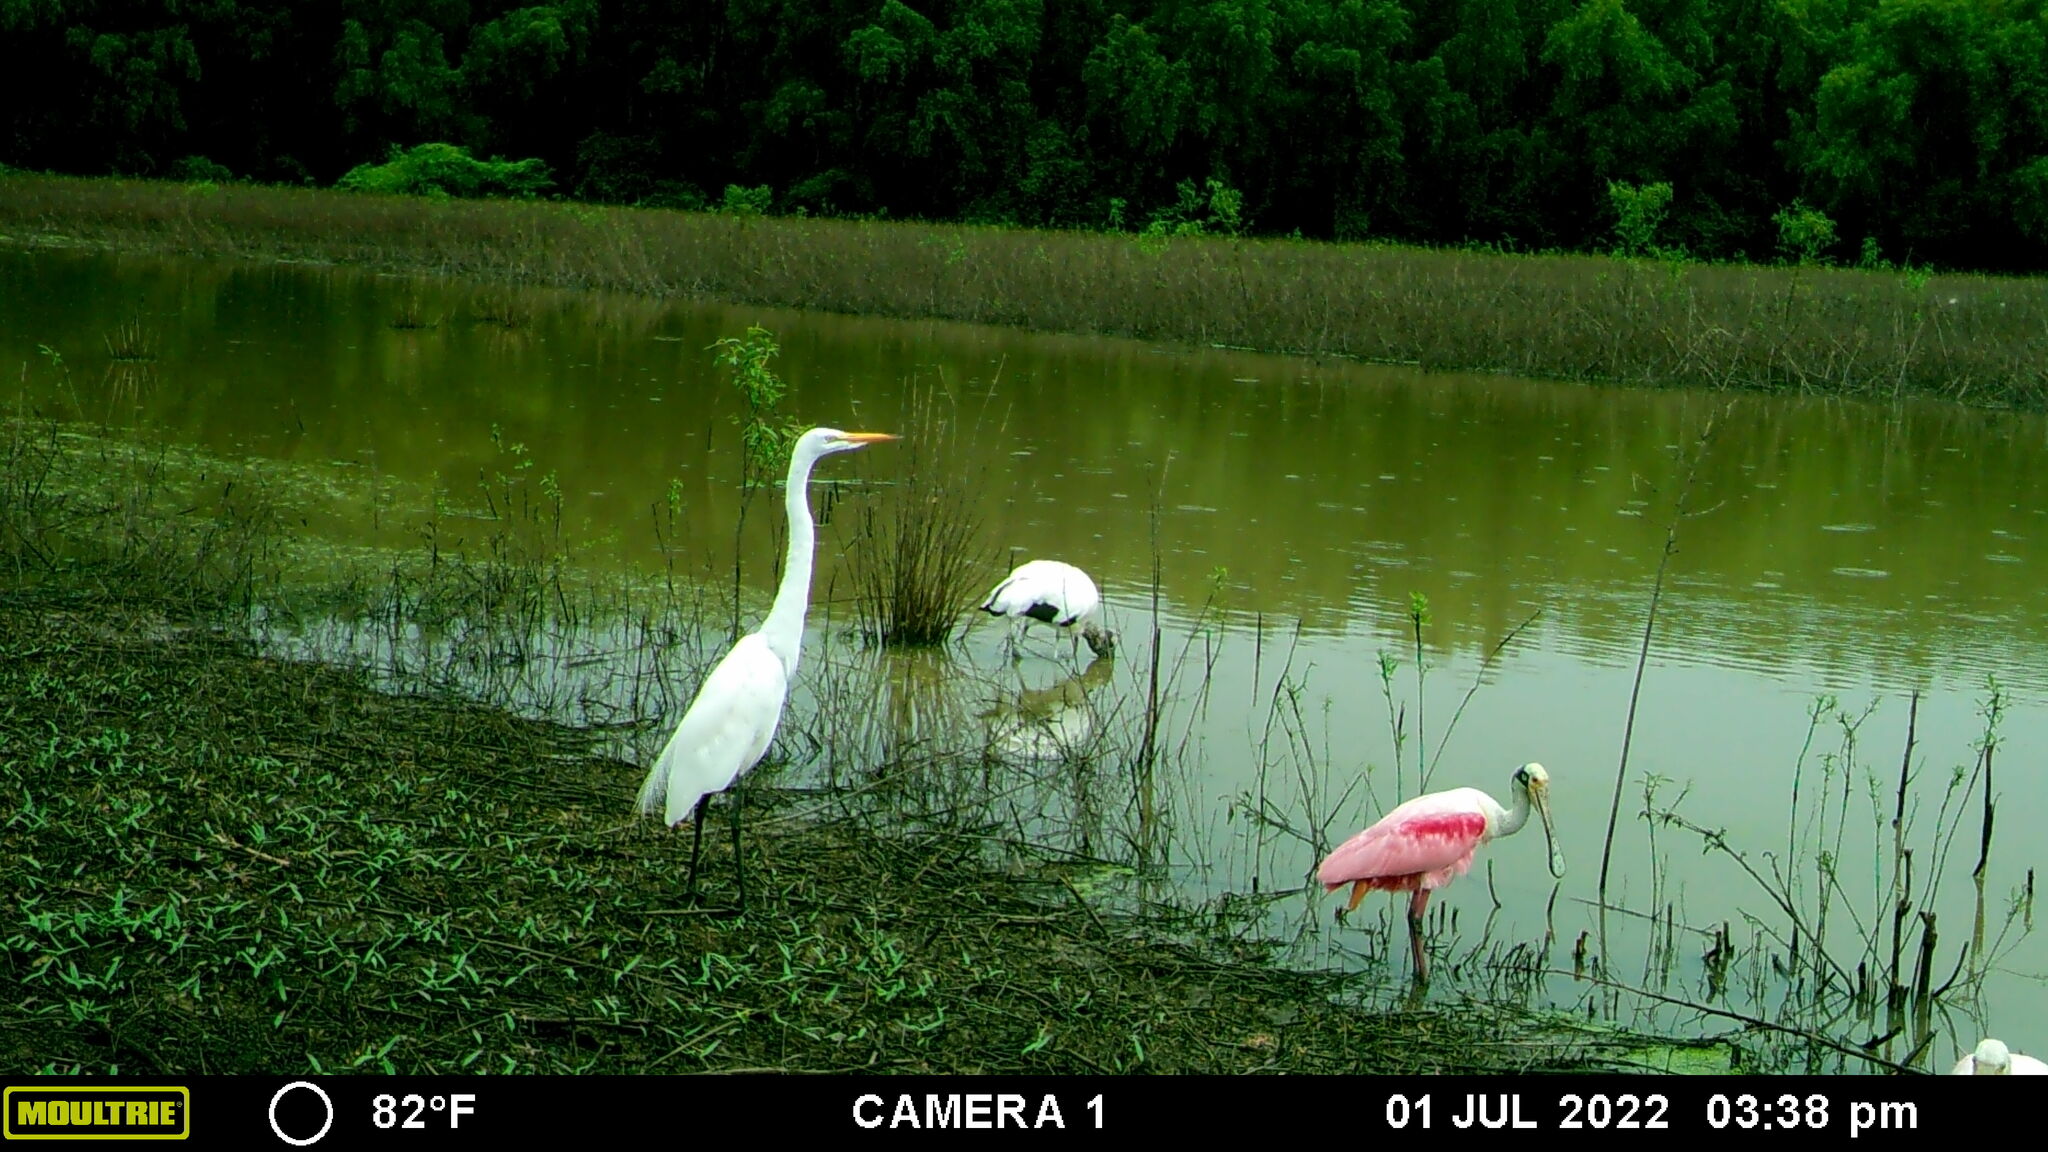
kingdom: Animalia
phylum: Chordata
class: Aves
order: Pelecaniformes
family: Threskiornithidae
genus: Platalea
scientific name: Platalea ajaja
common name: Roseate spoonbill
